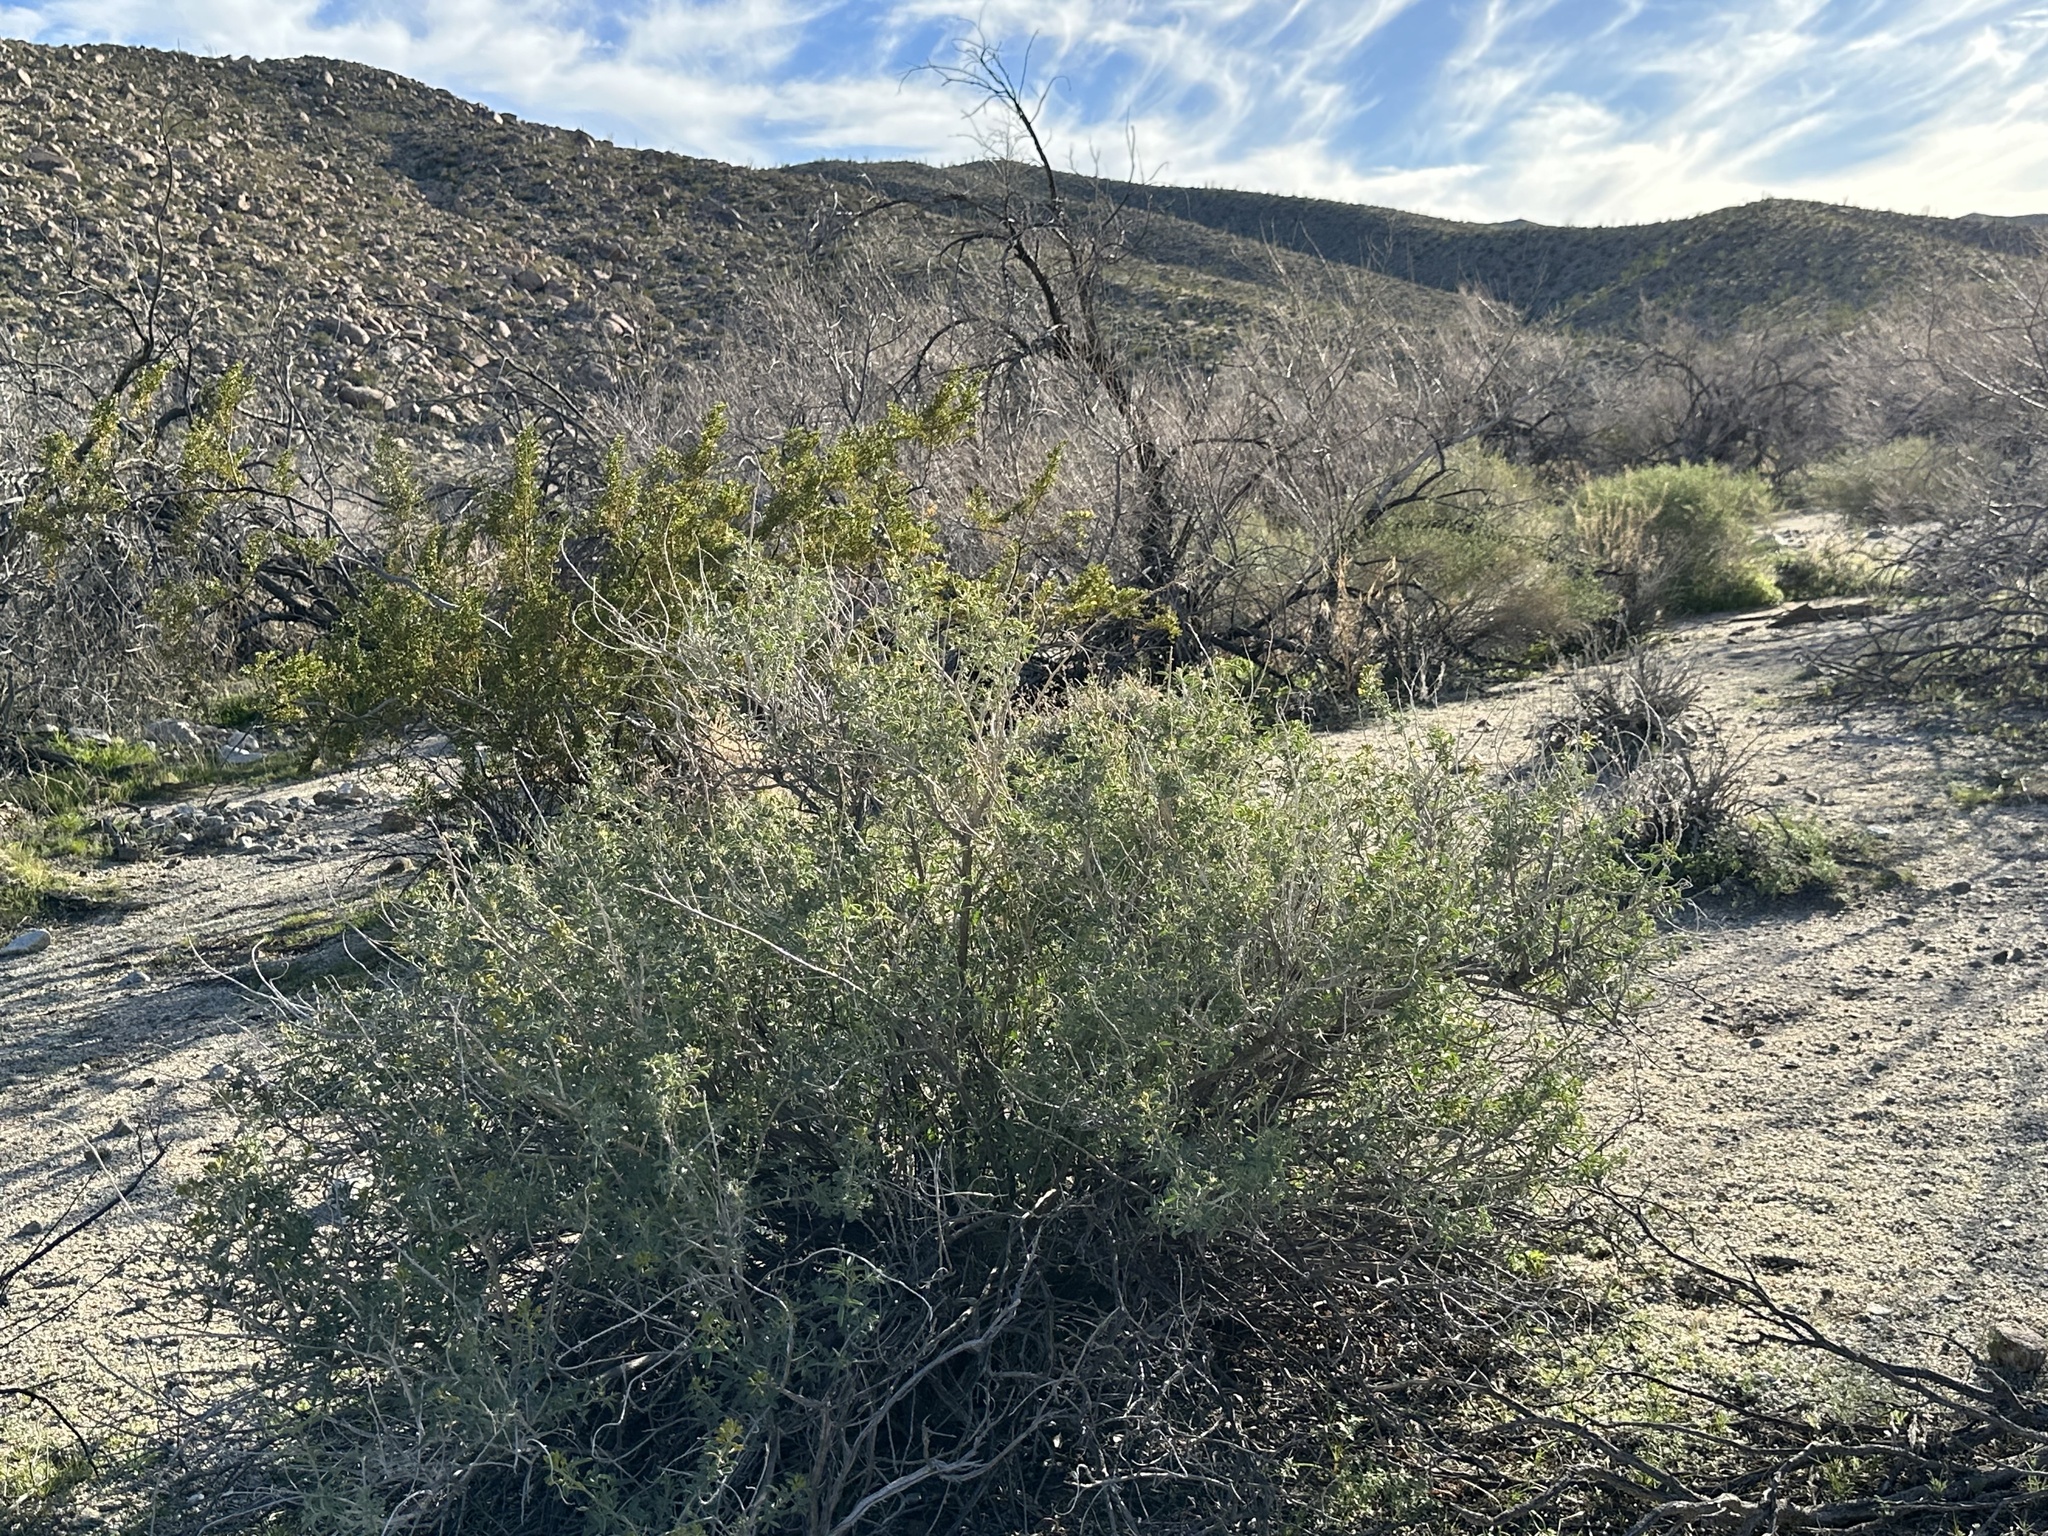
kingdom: Plantae
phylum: Tracheophyta
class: Magnoliopsida
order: Brassicales
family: Cleomaceae
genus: Cleomella
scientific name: Cleomella arborea
